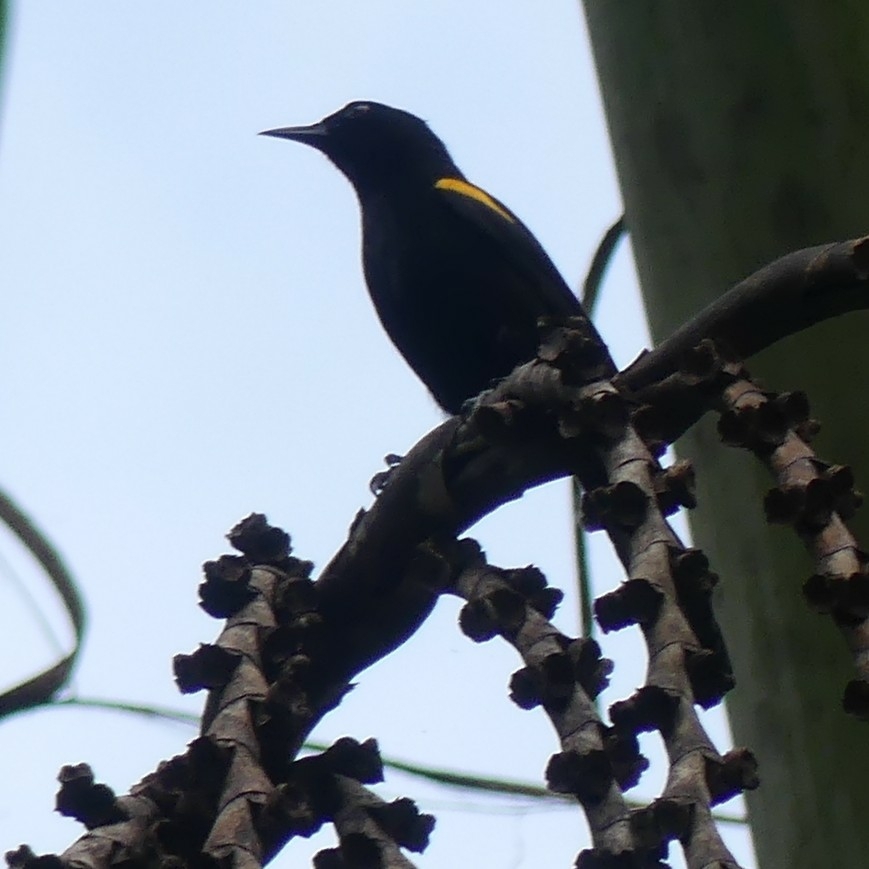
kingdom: Animalia
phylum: Chordata
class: Aves
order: Passeriformes
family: Icteridae
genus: Icterus
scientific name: Icterus cayanensis
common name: Epaulet oriole
